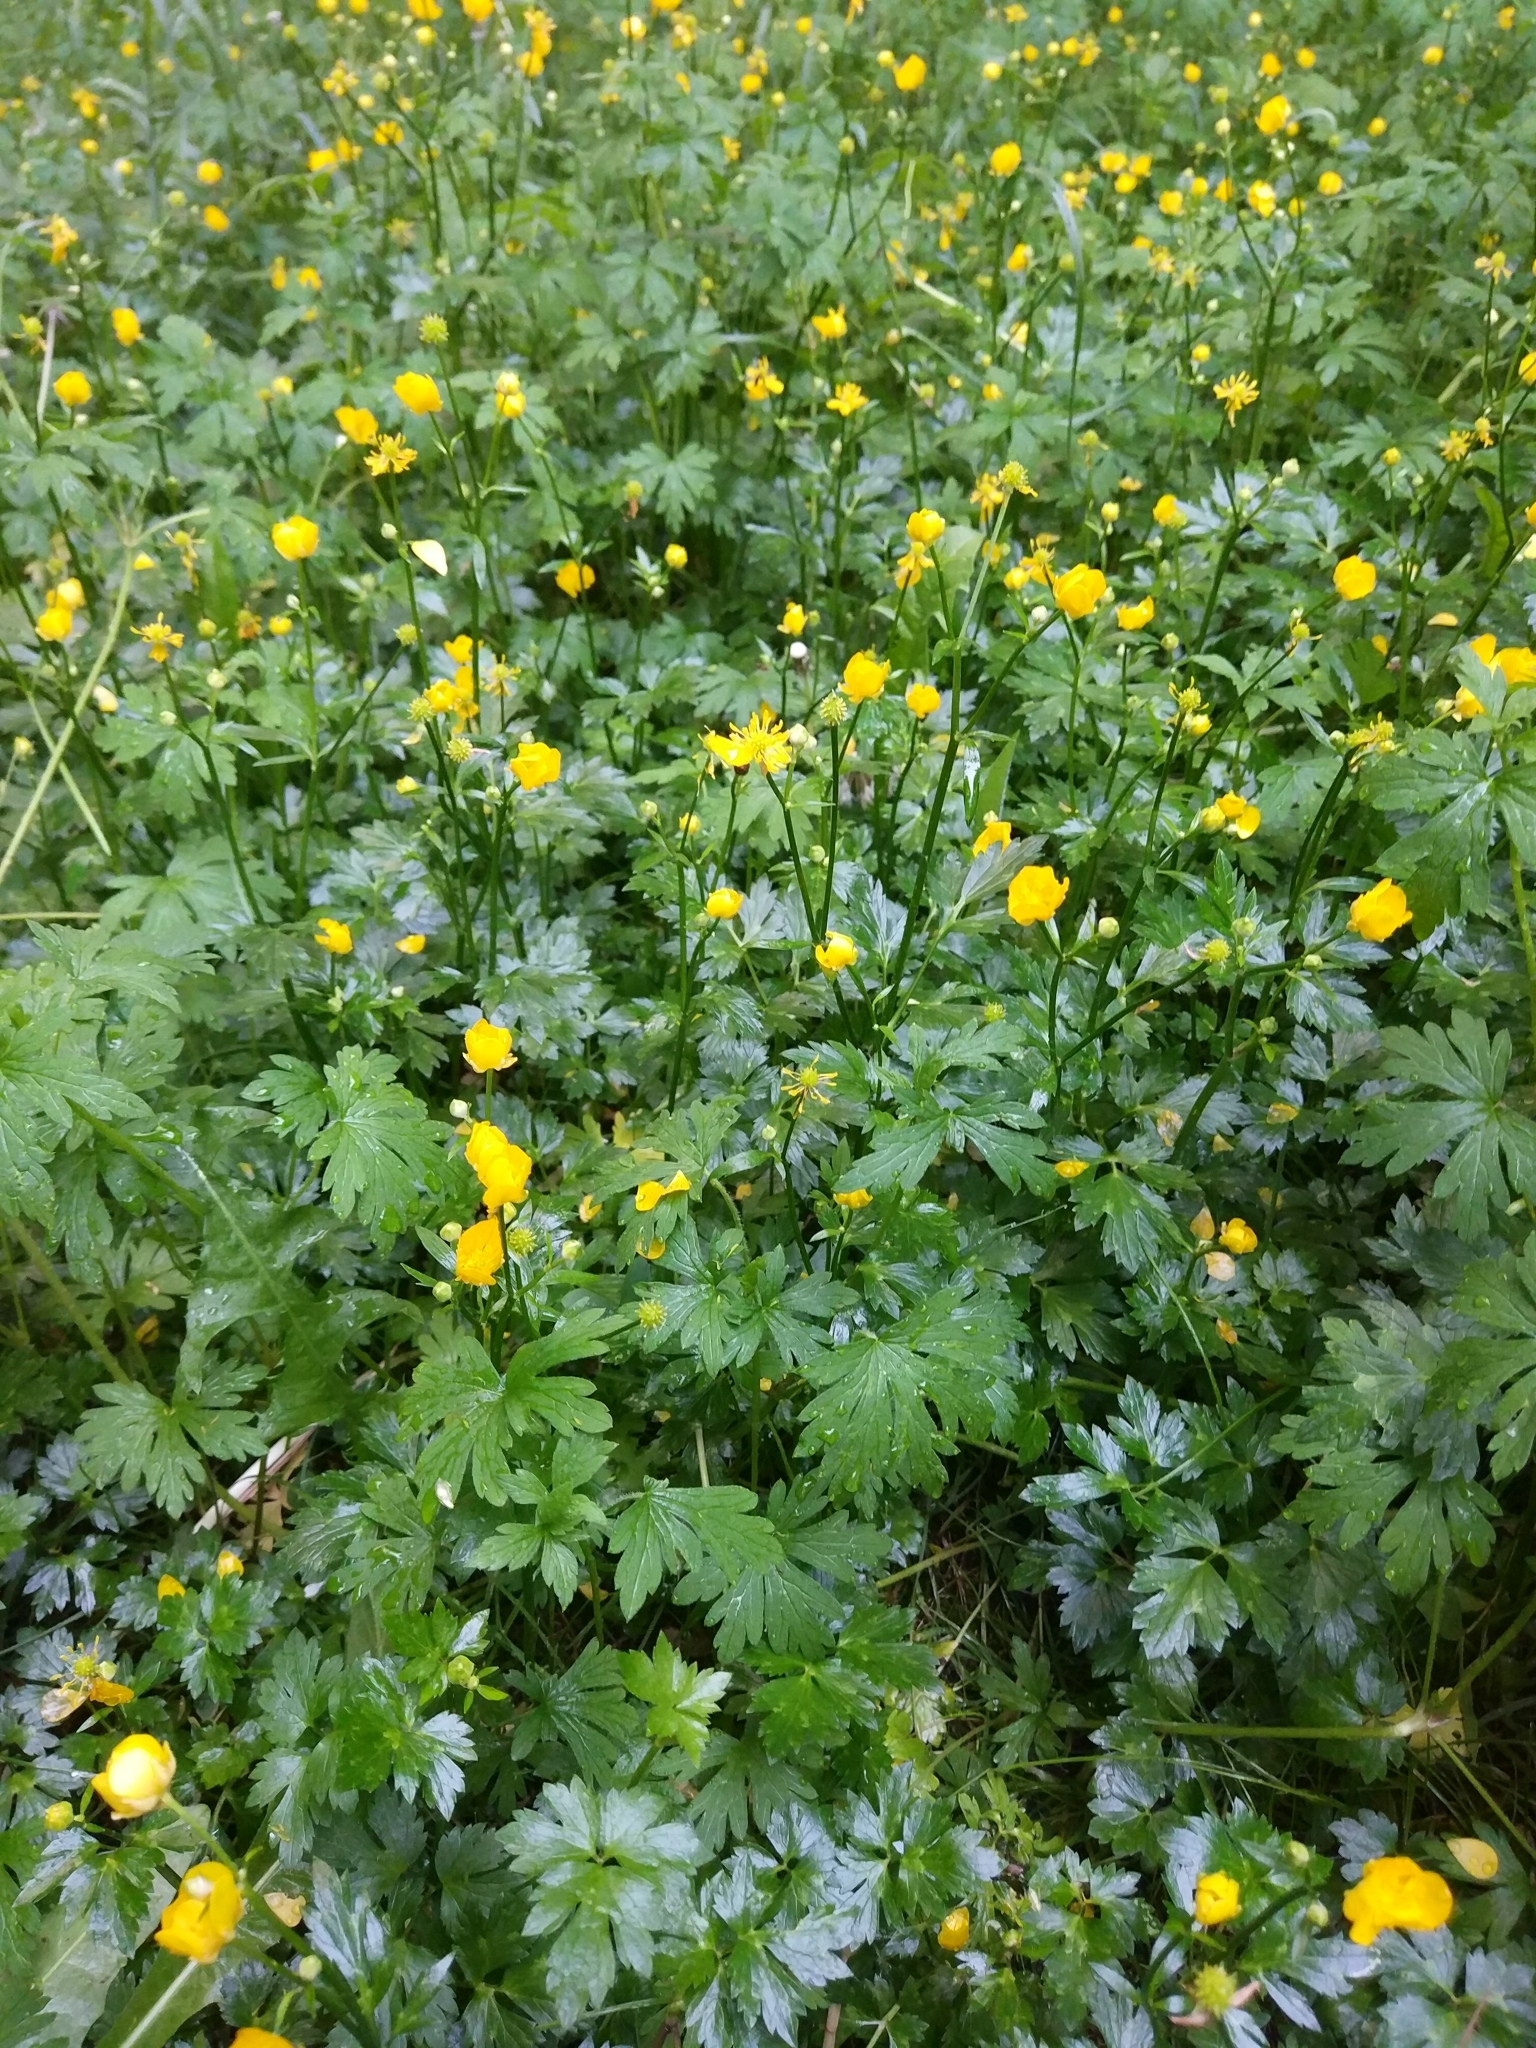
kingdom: Plantae
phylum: Tracheophyta
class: Magnoliopsida
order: Ranunculales
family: Ranunculaceae
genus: Ranunculus
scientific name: Ranunculus repens
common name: Creeping buttercup
